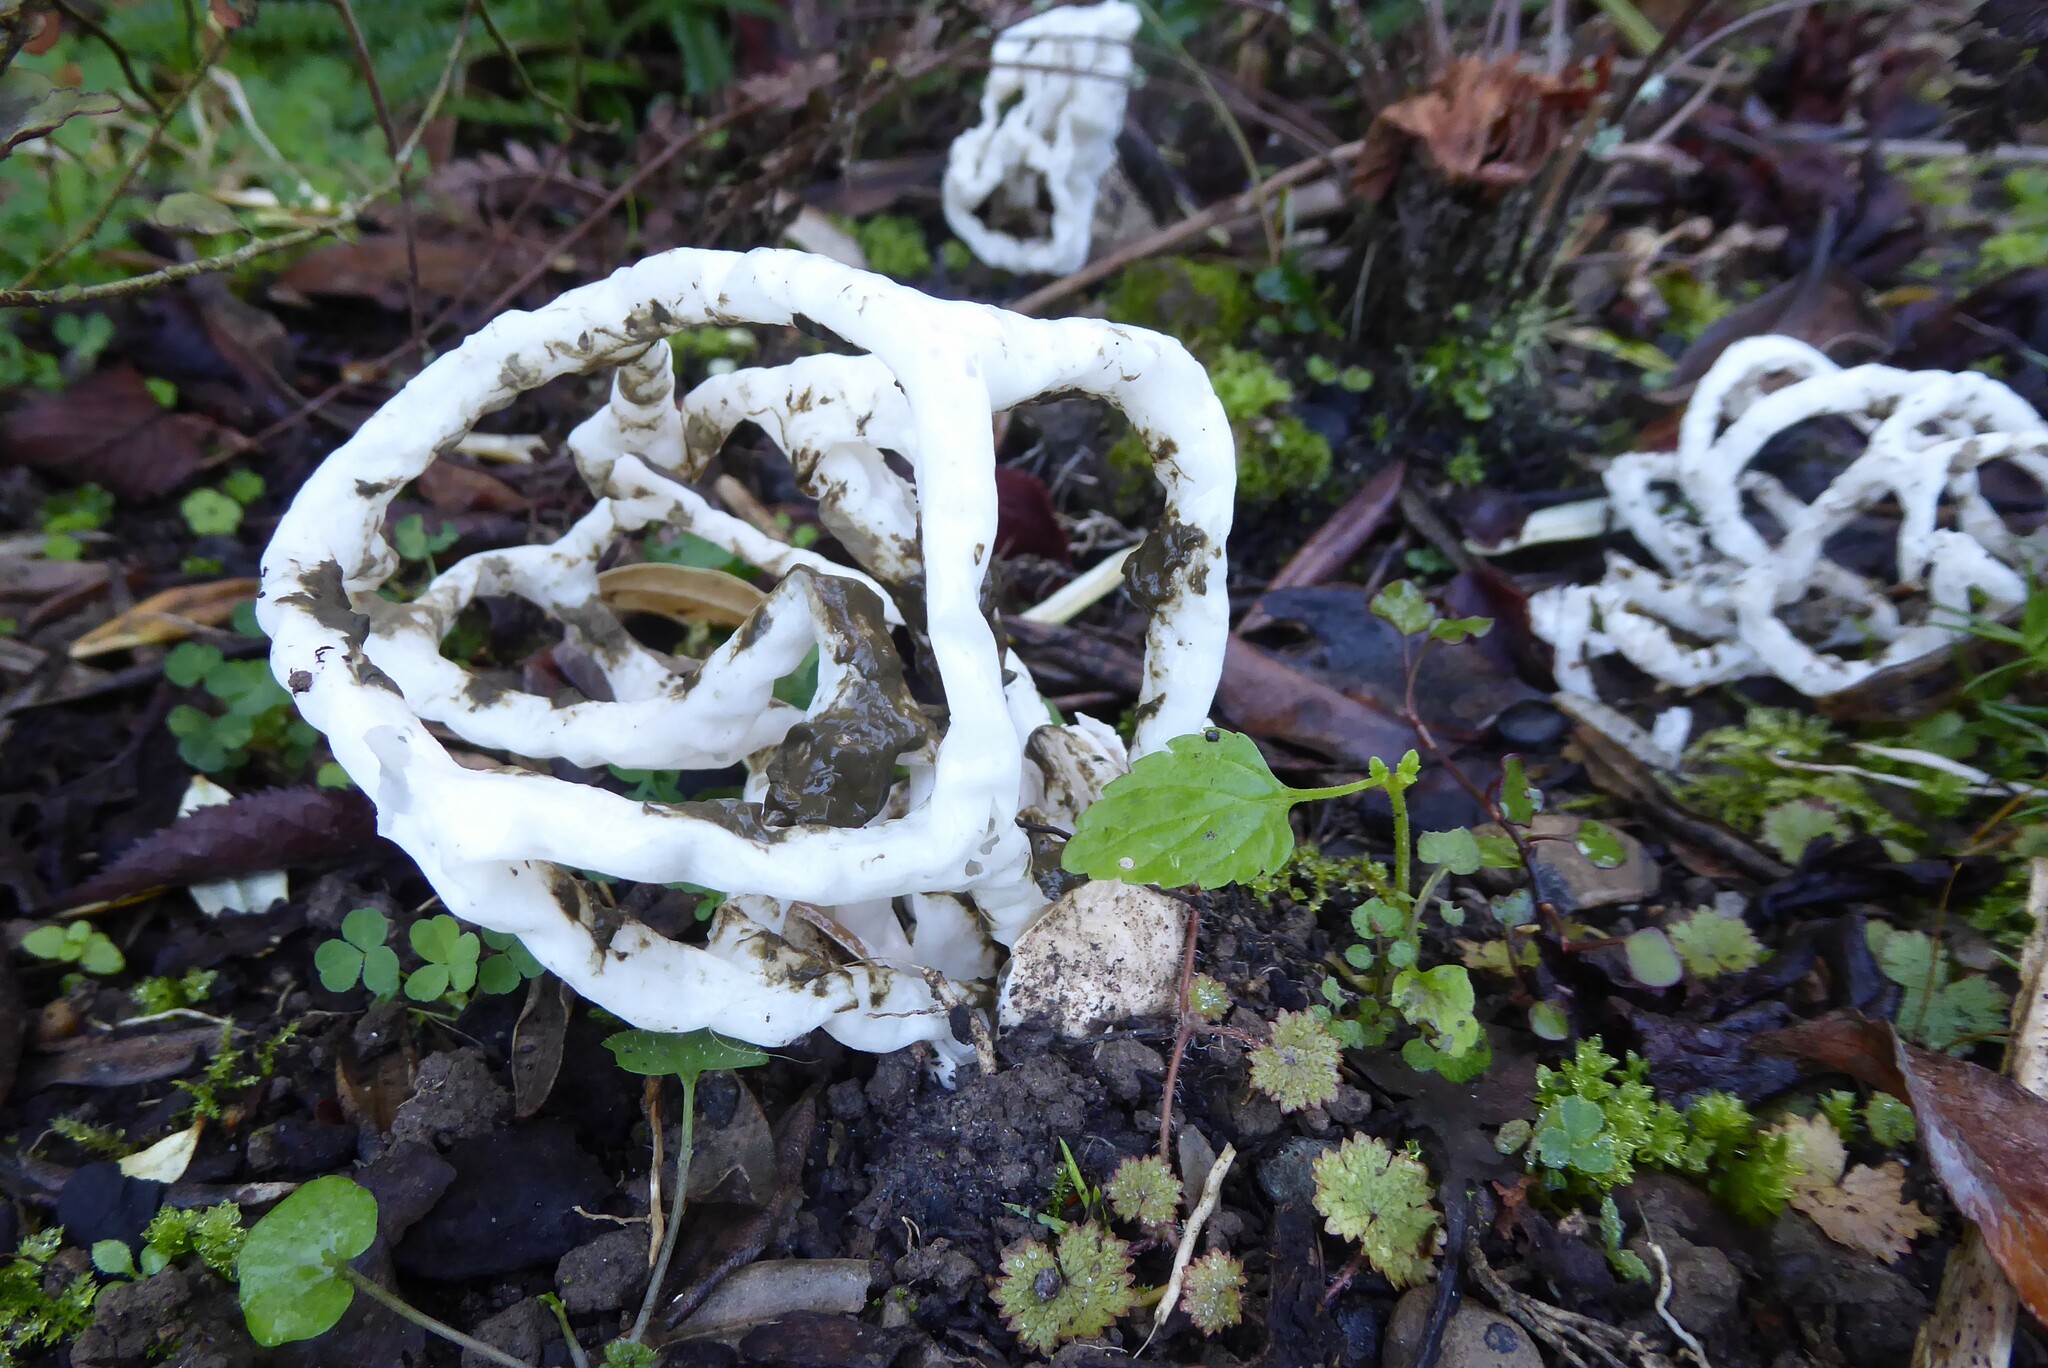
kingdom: Fungi
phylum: Basidiomycota
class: Agaricomycetes
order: Phallales
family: Phallaceae
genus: Ileodictyon
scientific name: Ileodictyon cibarium
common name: Basket fungus
